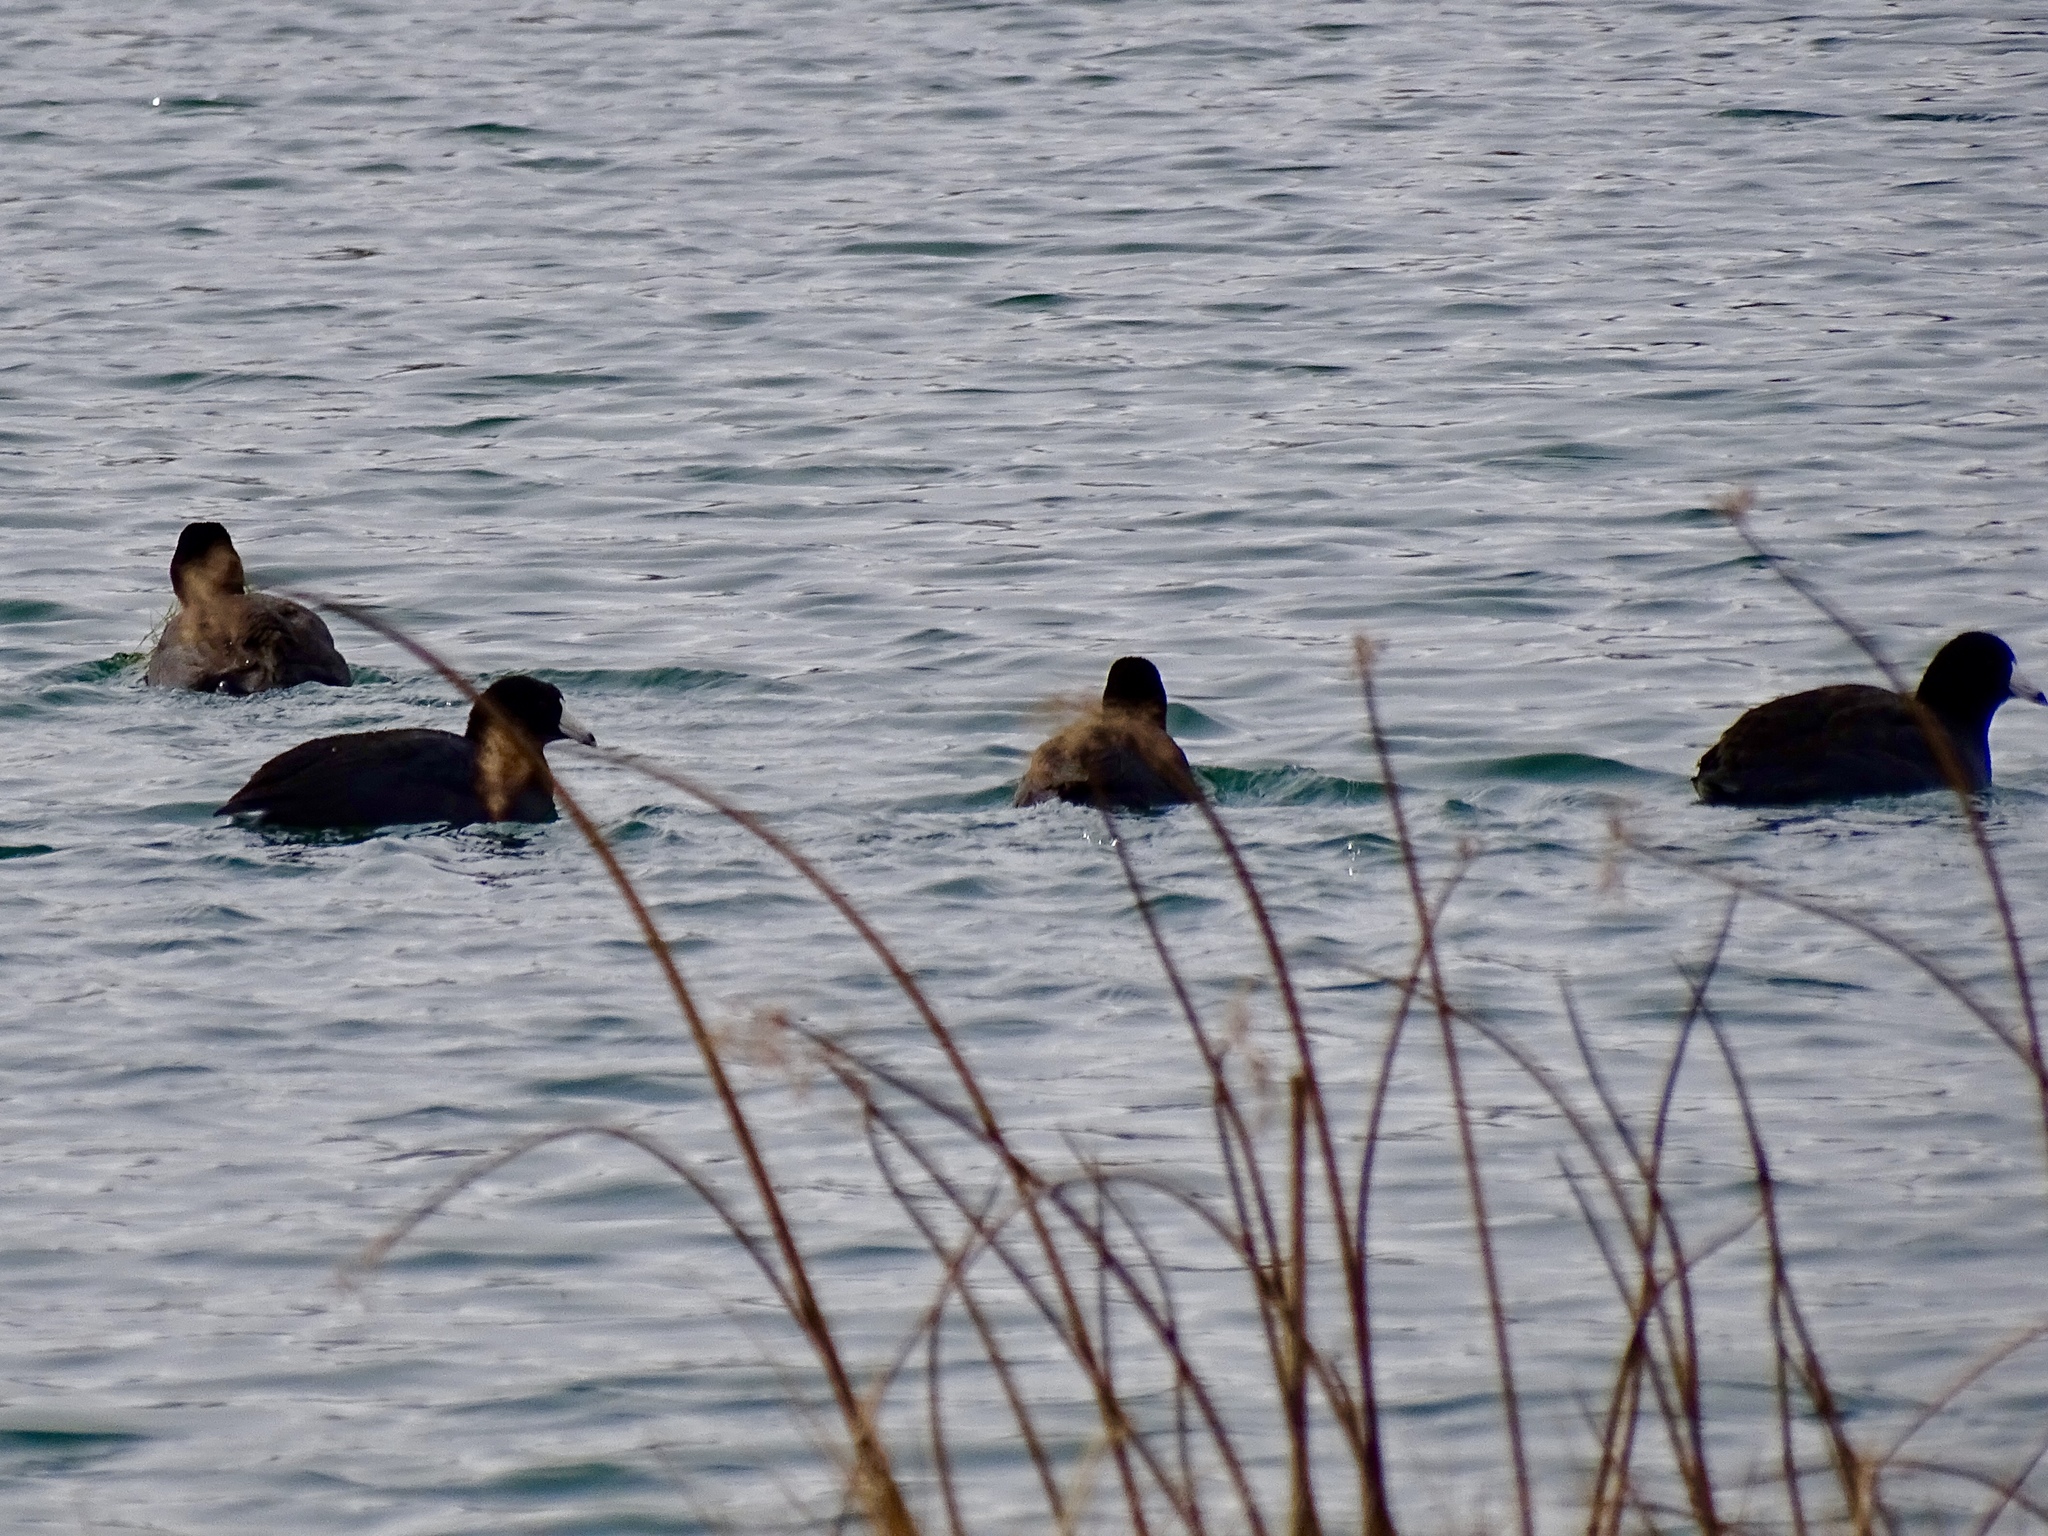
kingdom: Animalia
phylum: Chordata
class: Aves
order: Gruiformes
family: Rallidae
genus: Fulica
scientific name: Fulica americana
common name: American coot
